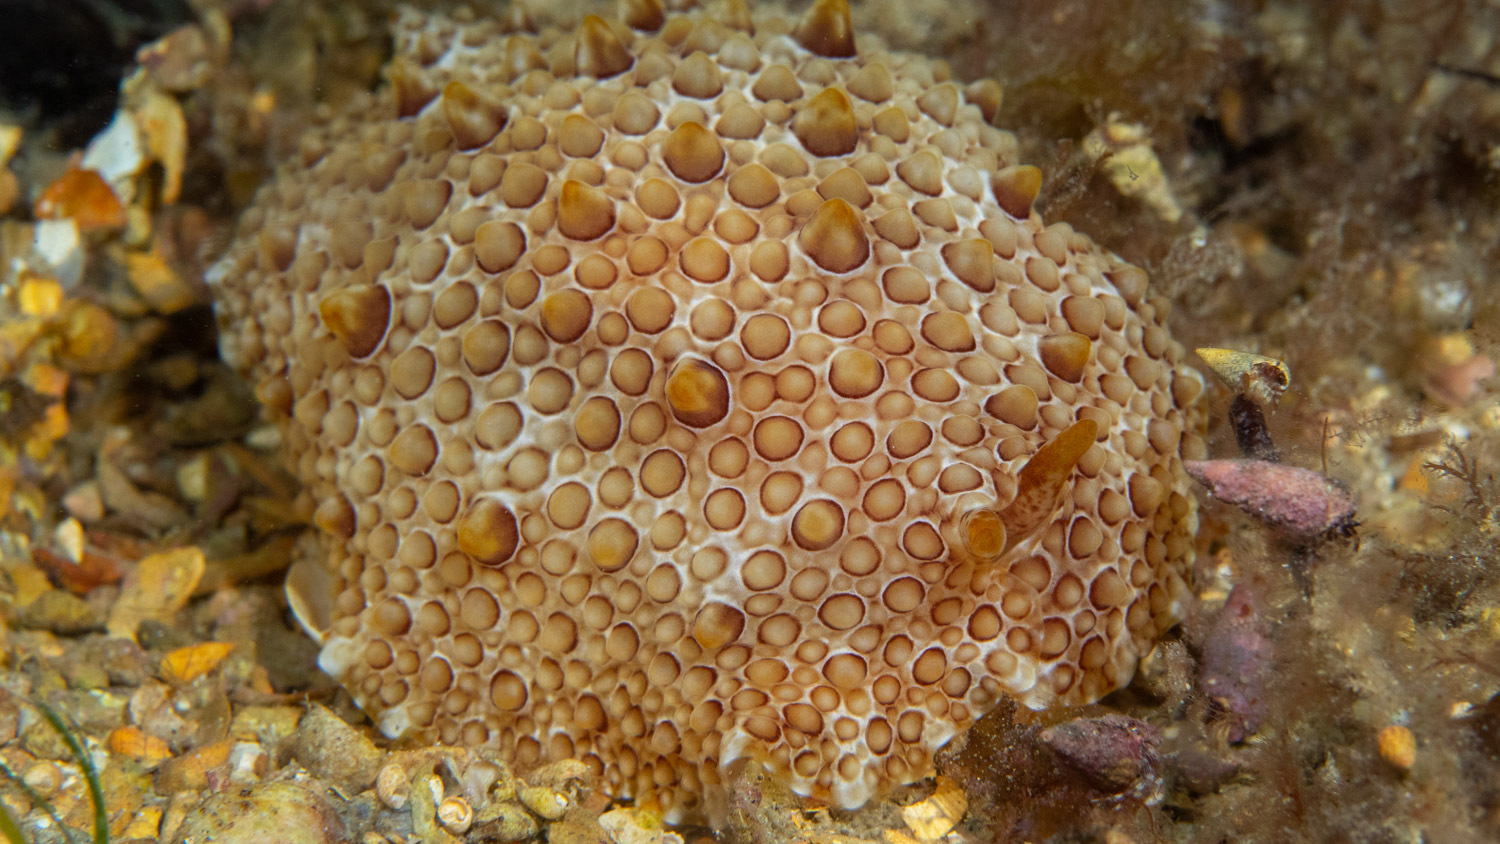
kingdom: Animalia
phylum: Mollusca
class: Gastropoda
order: Pleurobranchida
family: Pleurobranchidae
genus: Pleurobranchus
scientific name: Pleurobranchus hilli
